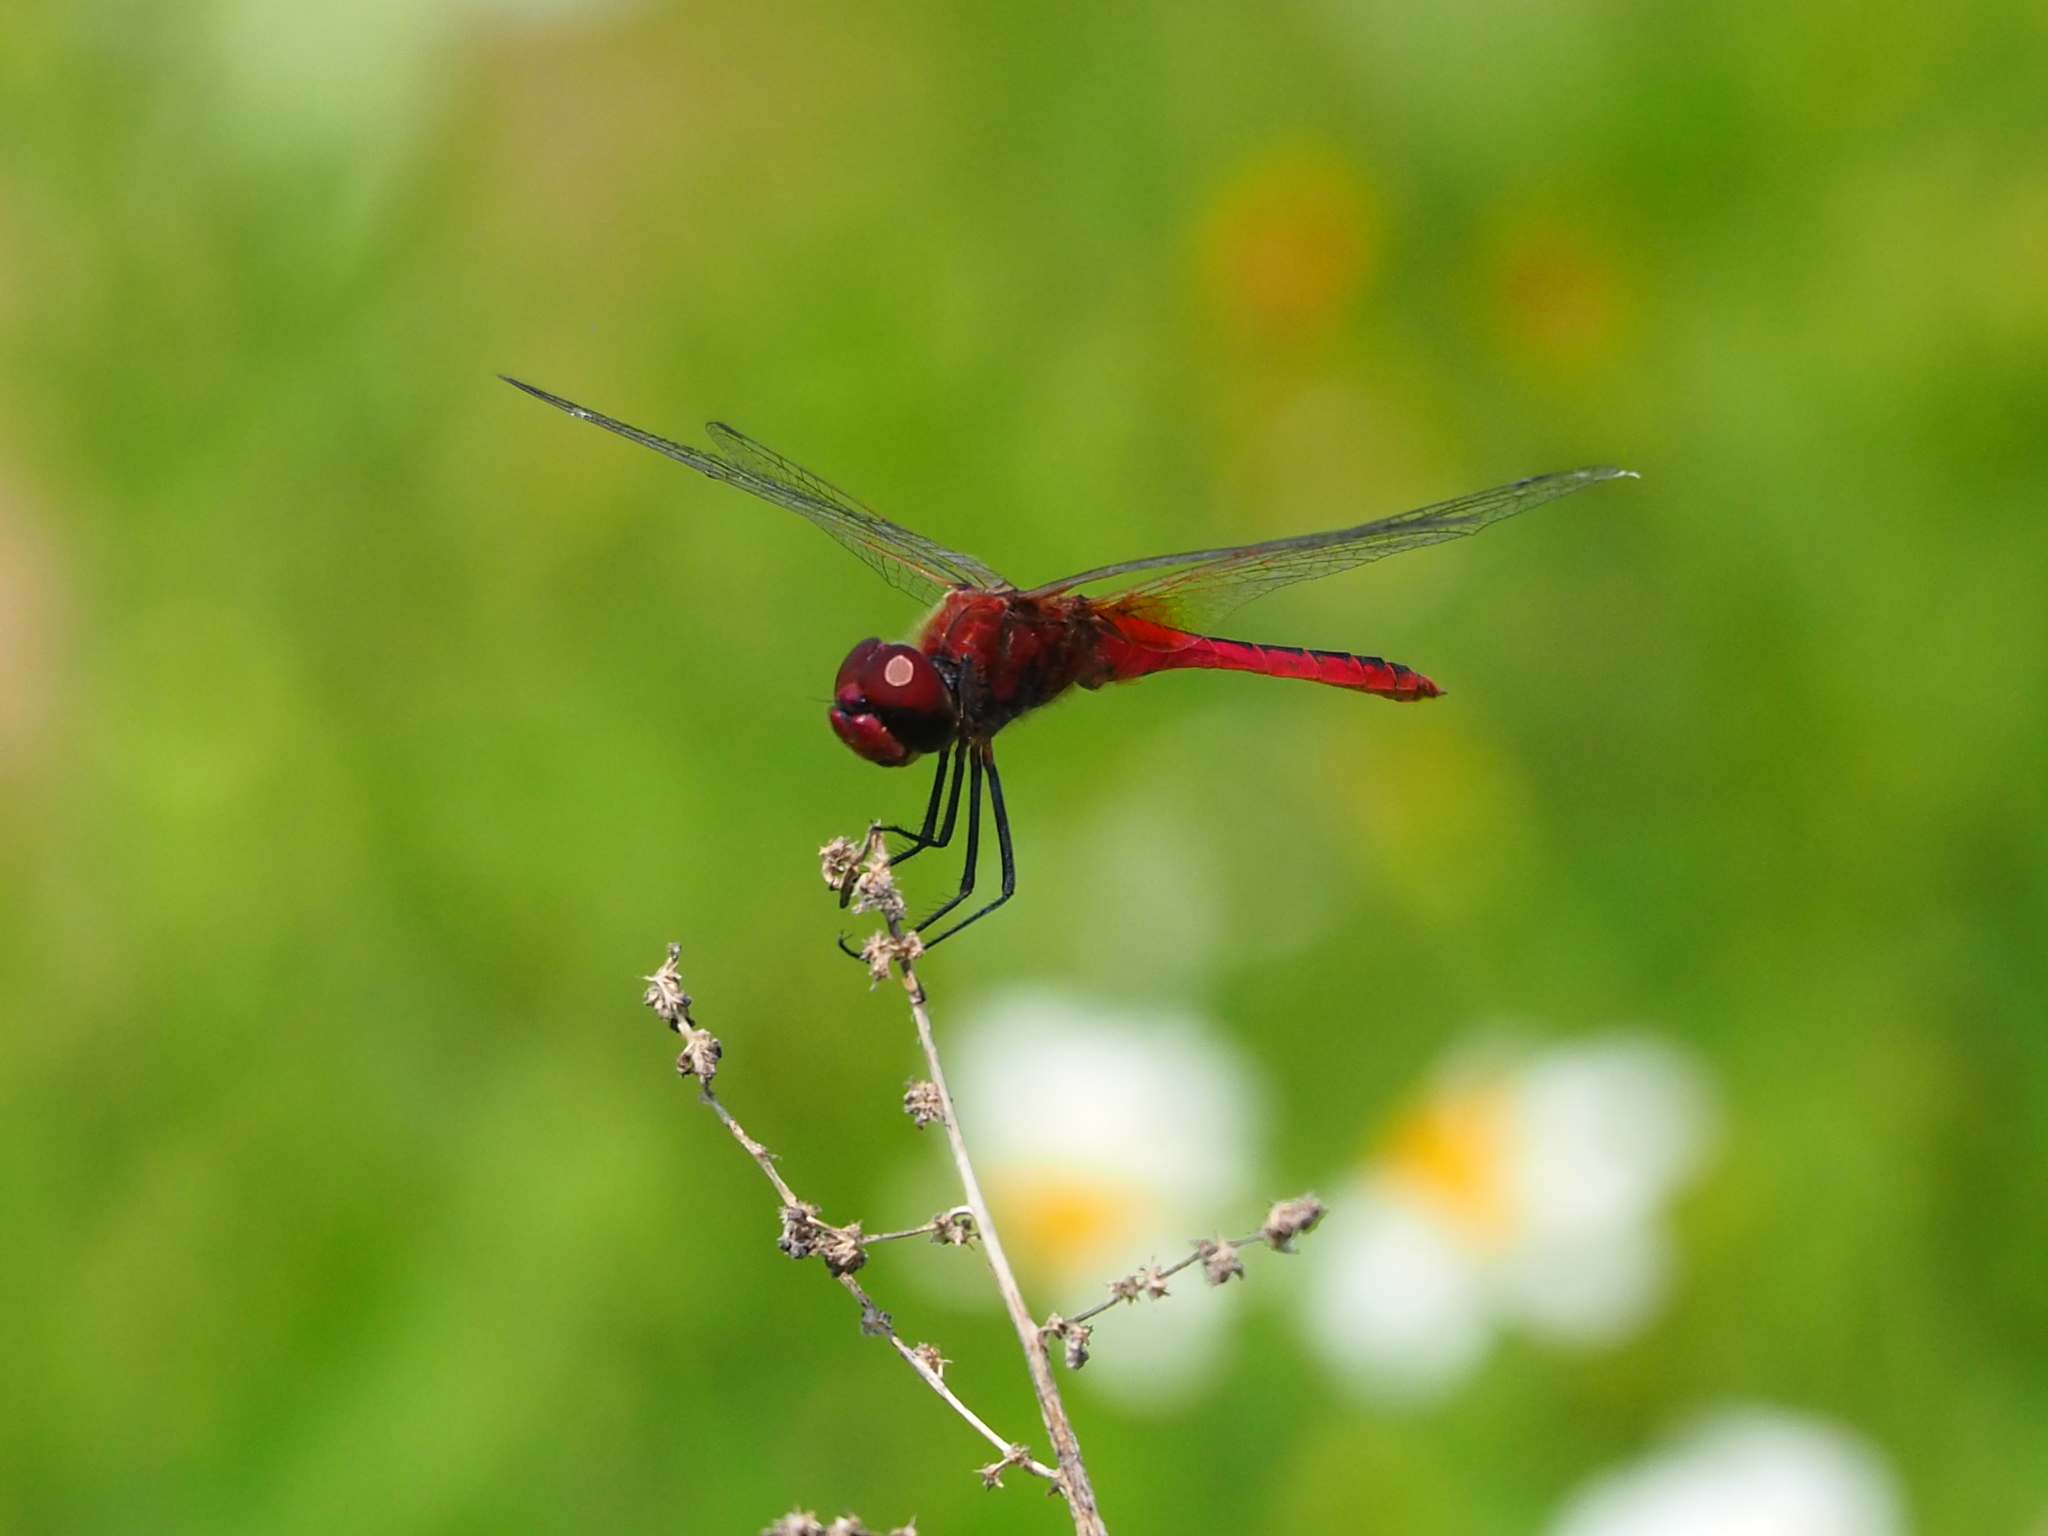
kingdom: Animalia
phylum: Arthropoda
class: Insecta
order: Odonata
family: Libellulidae
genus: Macrodiplax
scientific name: Macrodiplax cora
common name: Coastal glider
